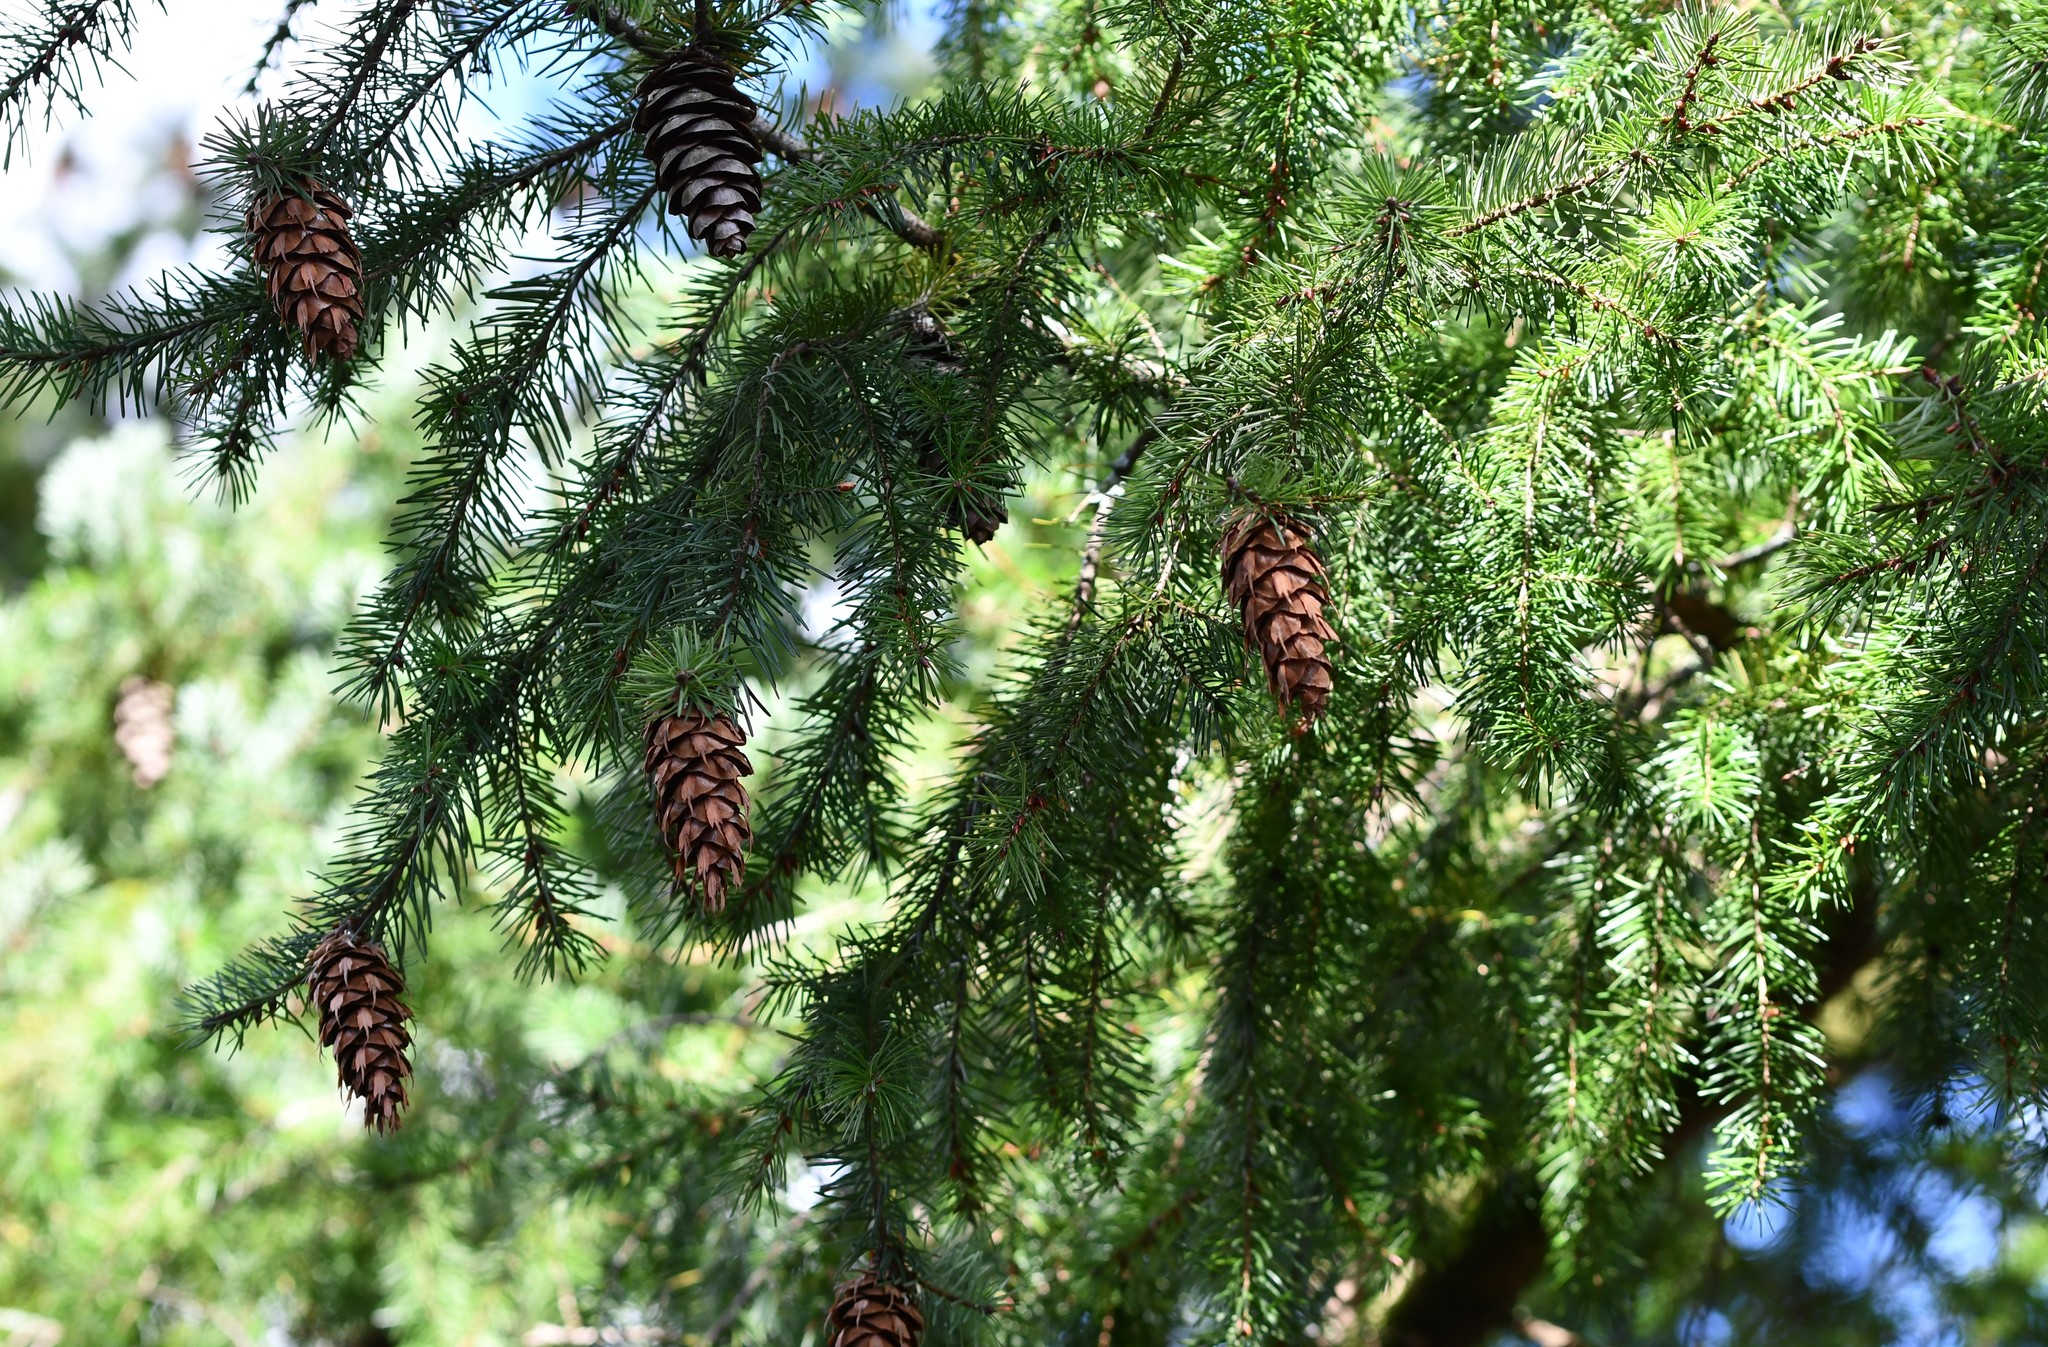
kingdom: Plantae
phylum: Tracheophyta
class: Pinopsida
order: Pinales
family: Pinaceae
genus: Pseudotsuga
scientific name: Pseudotsuga menziesii
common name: Douglas fir
